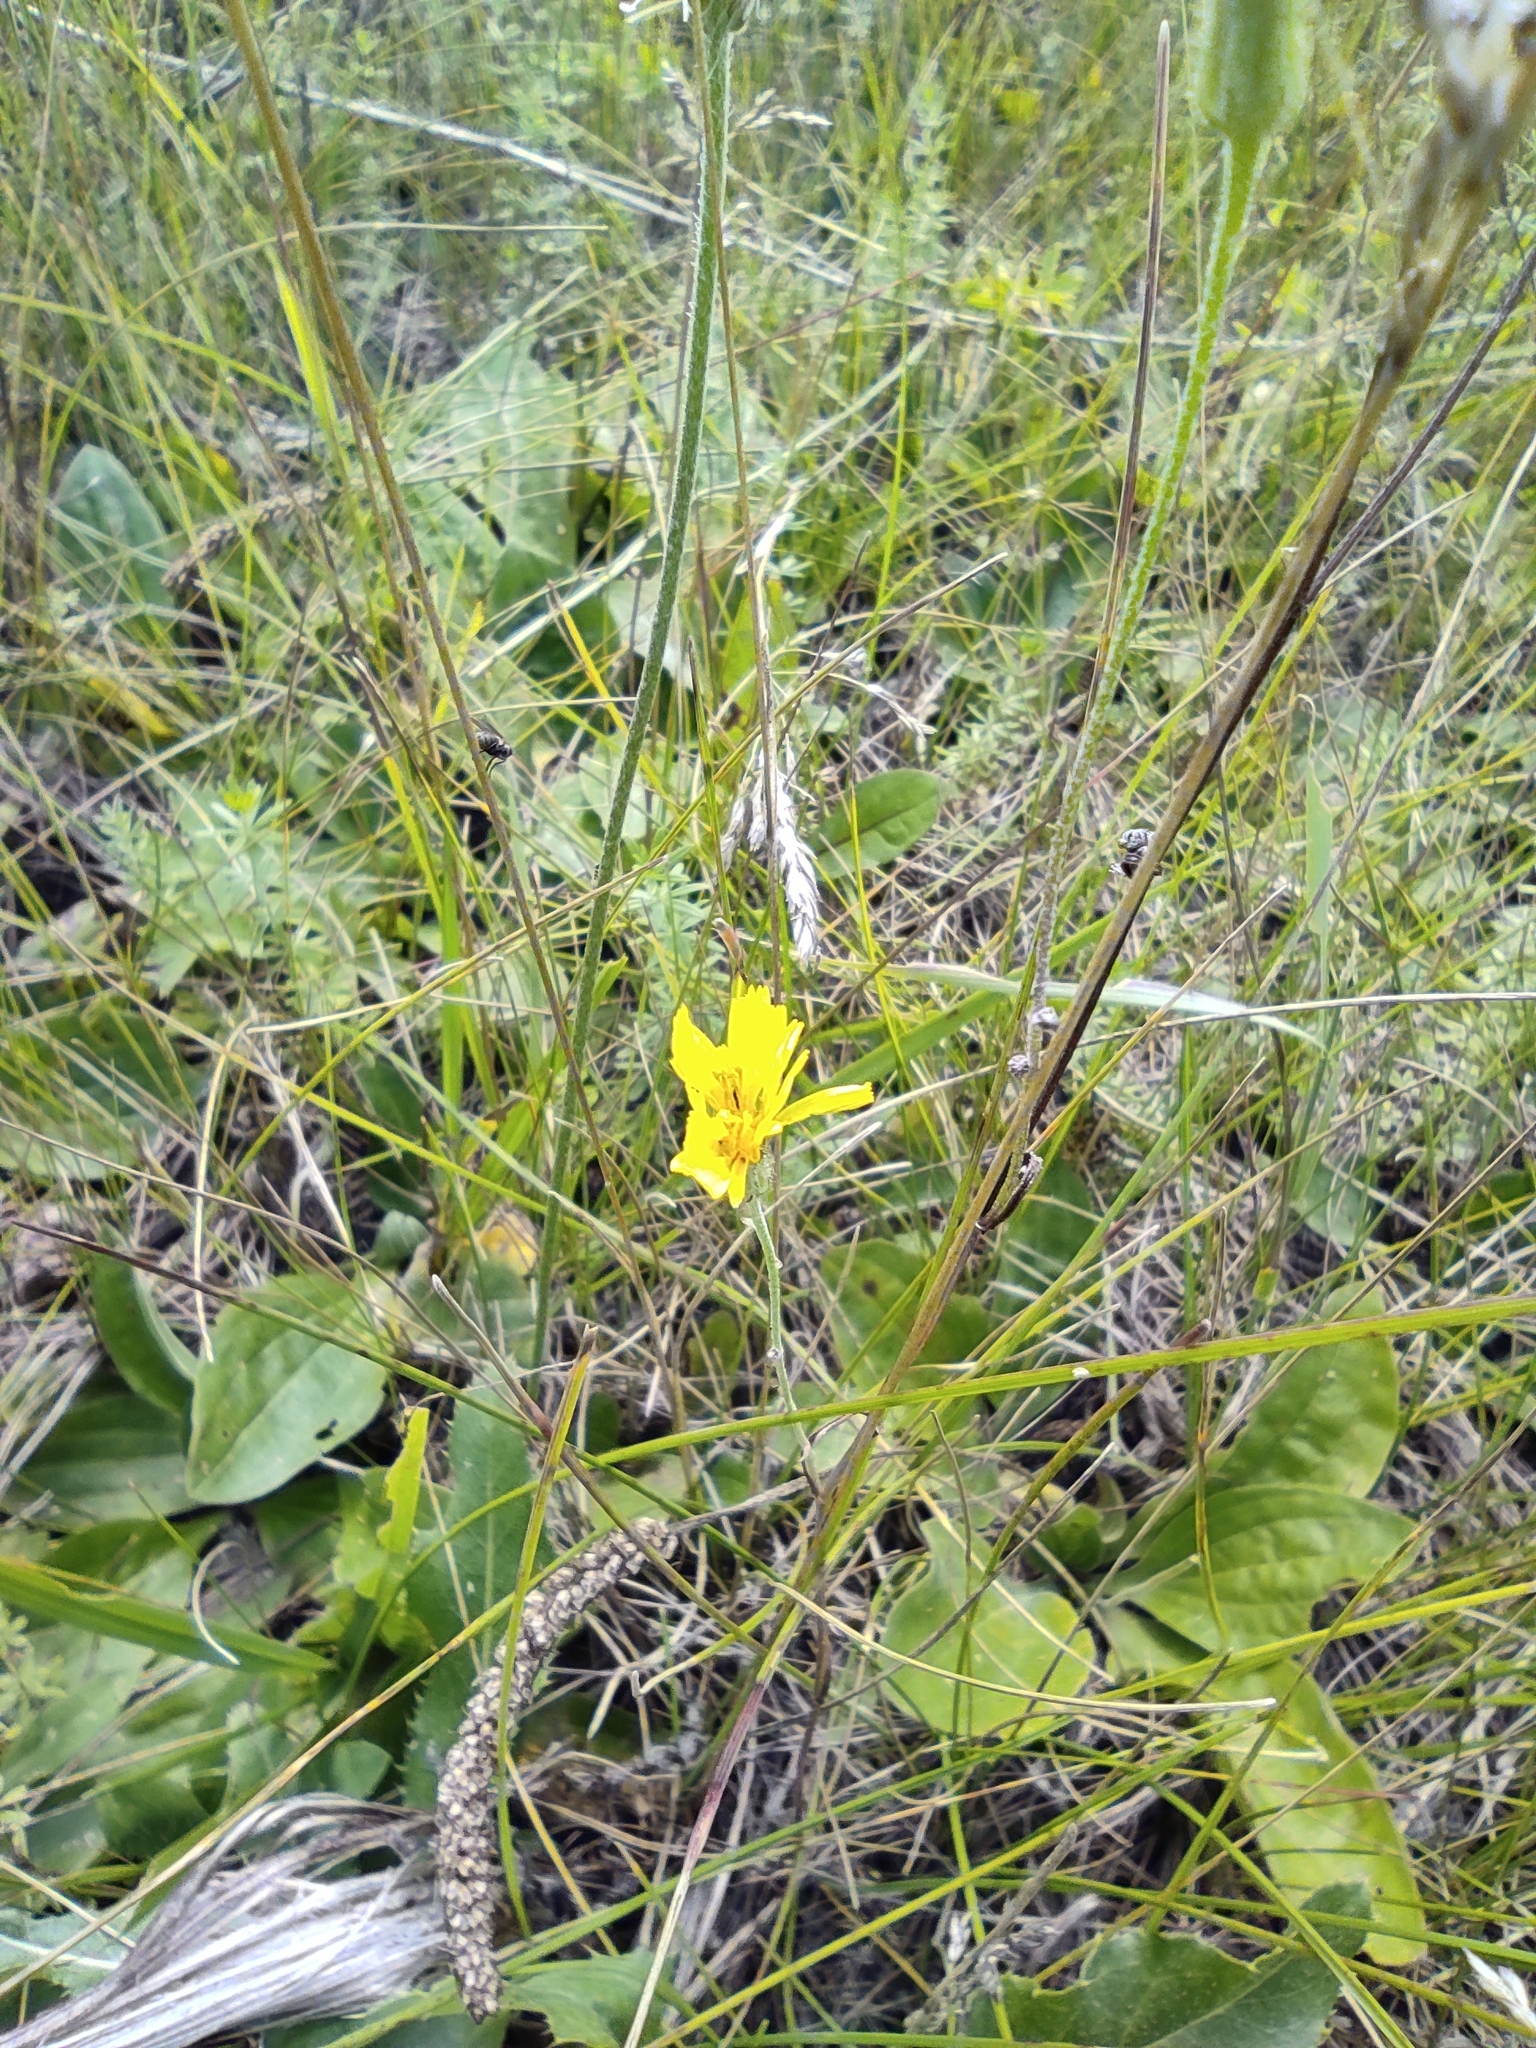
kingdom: Plantae
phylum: Tracheophyta
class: Magnoliopsida
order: Asterales
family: Asteraceae
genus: Crepis
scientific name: Crepis tectorum
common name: Narrow-leaved hawk's-beard
